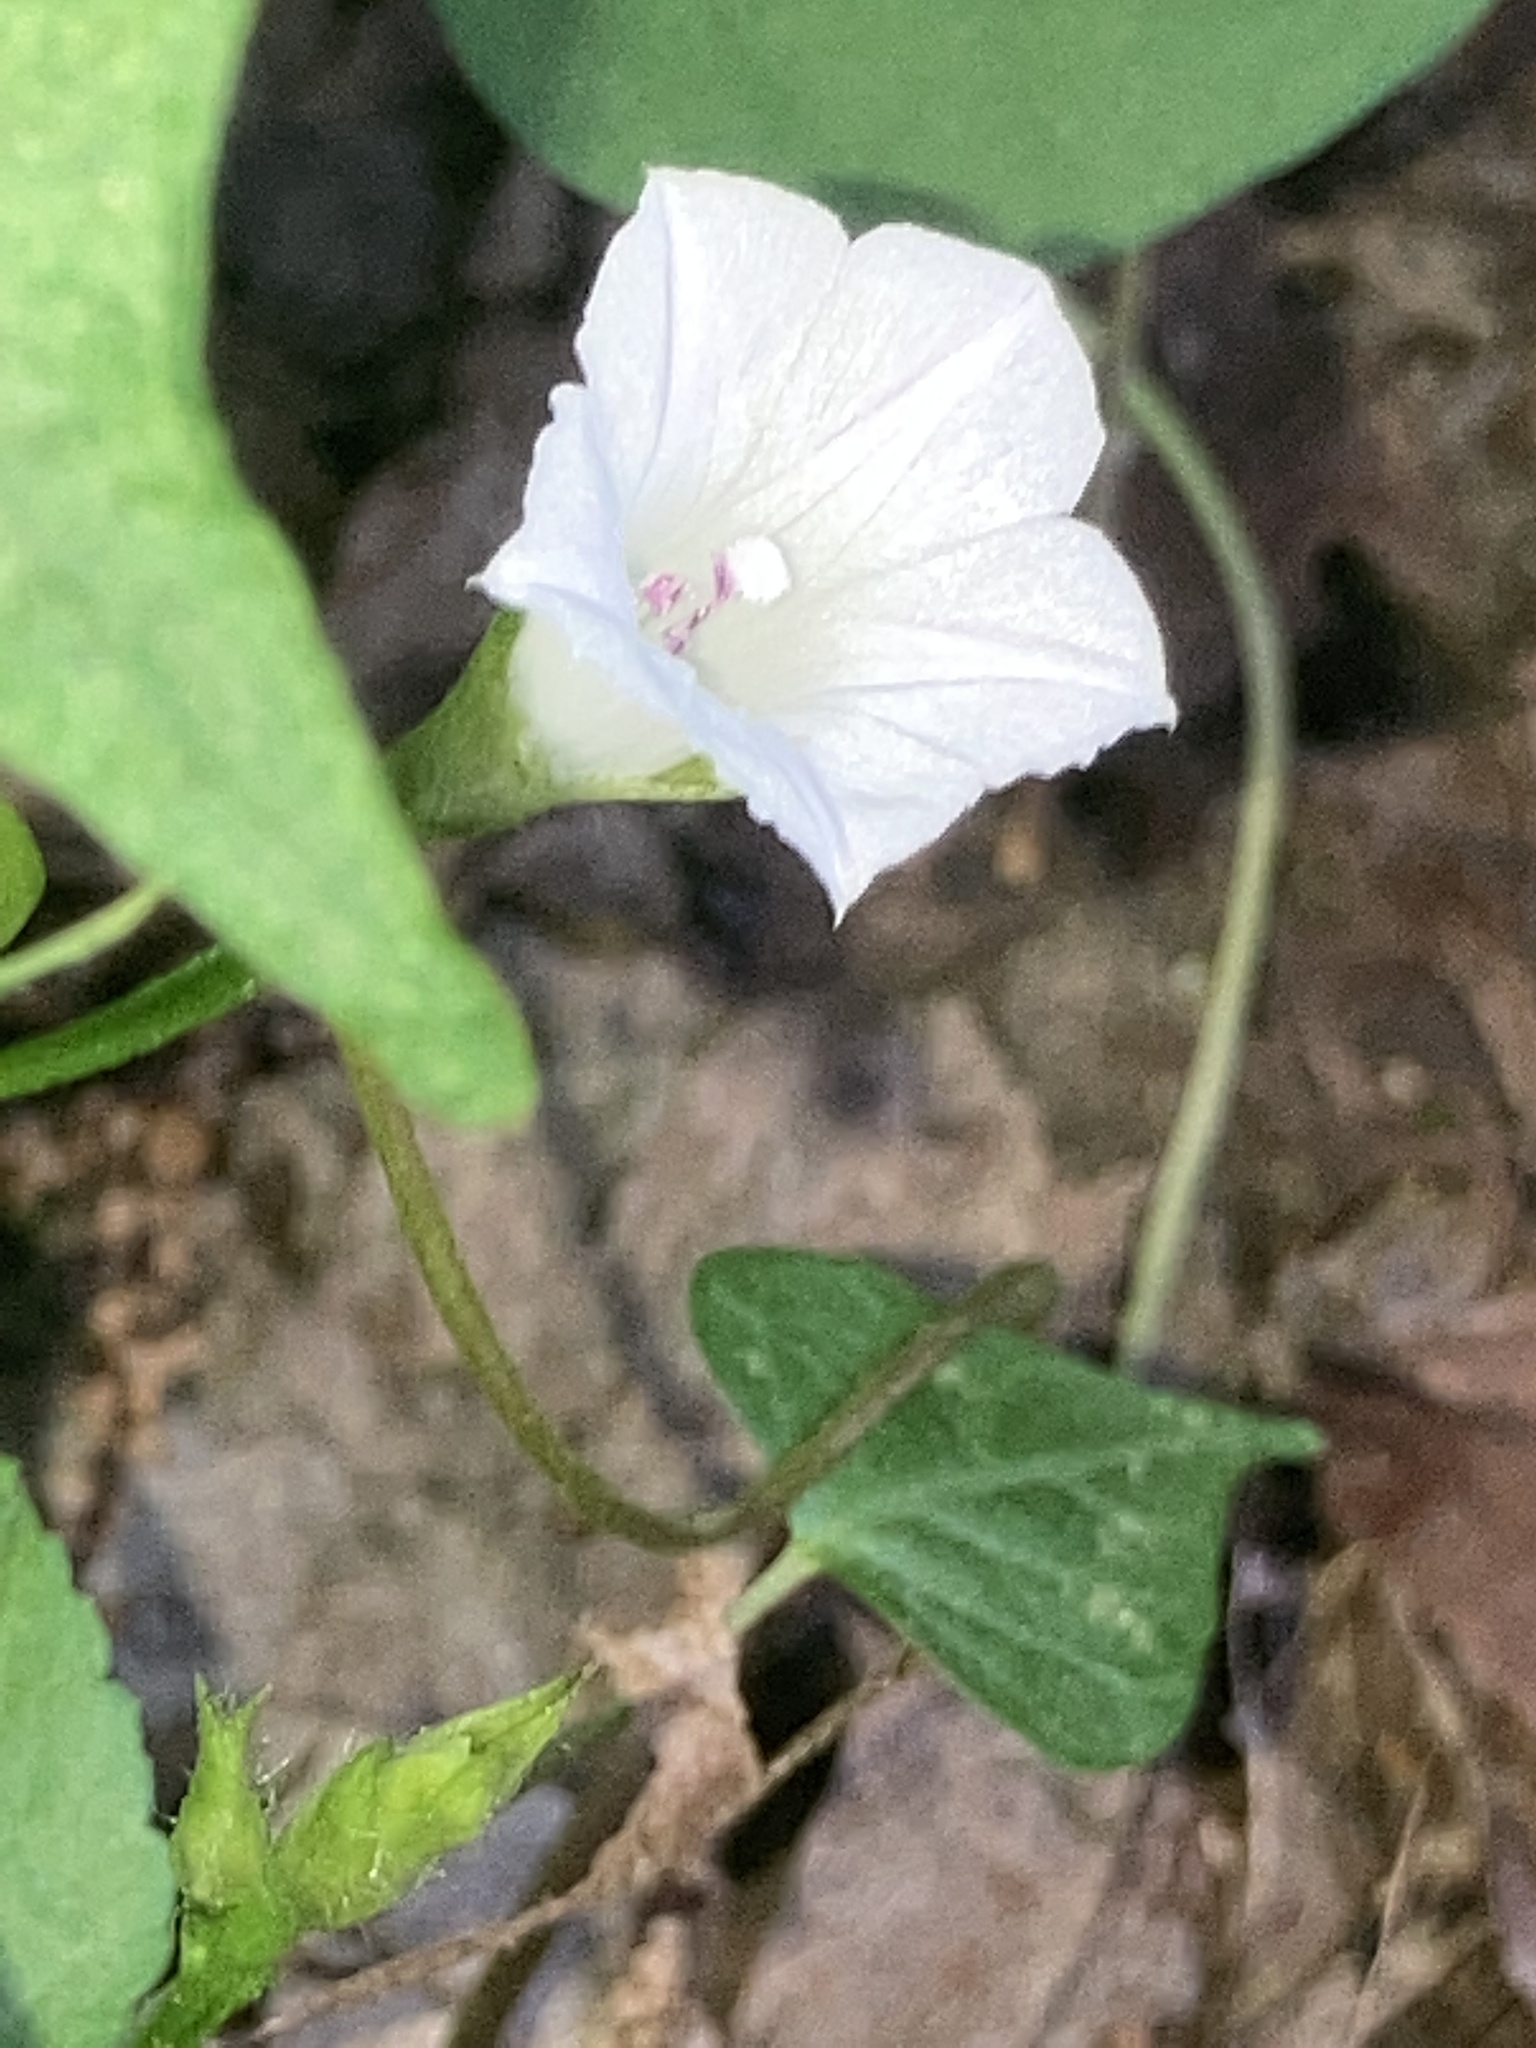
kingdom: Plantae
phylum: Tracheophyta
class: Magnoliopsida
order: Solanales
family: Convolvulaceae
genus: Ipomoea
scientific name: Ipomoea lacunosa
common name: White morning-glory
